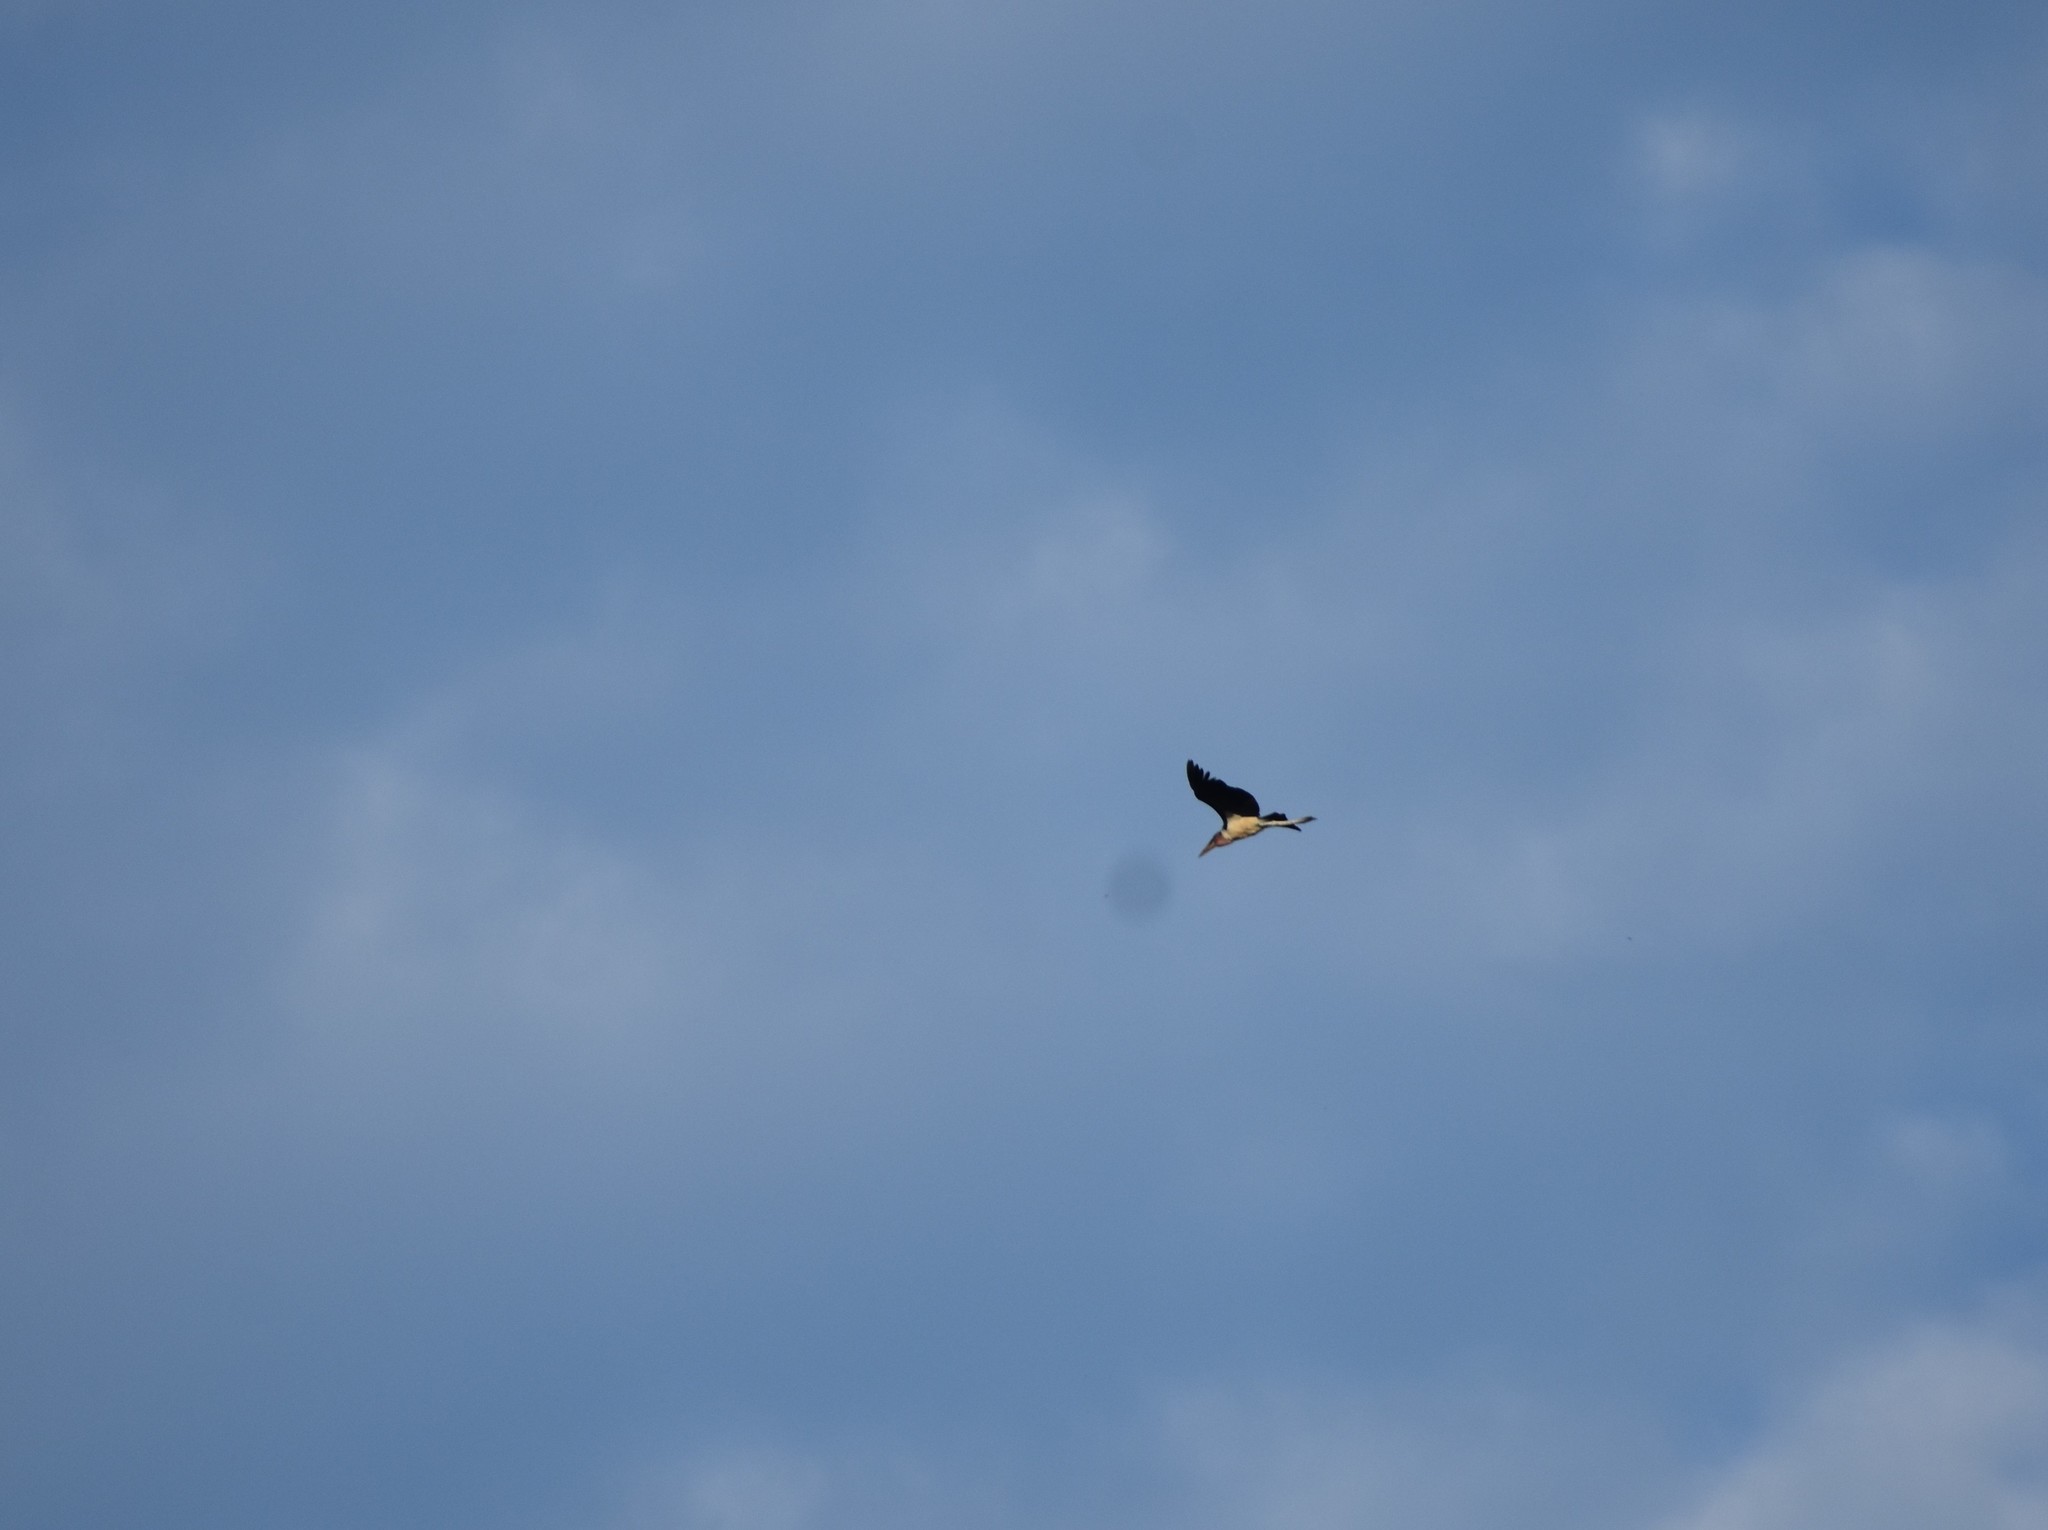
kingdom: Animalia
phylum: Chordata
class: Aves
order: Ciconiiformes
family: Ciconiidae
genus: Leptoptilos
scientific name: Leptoptilos crumenifer
